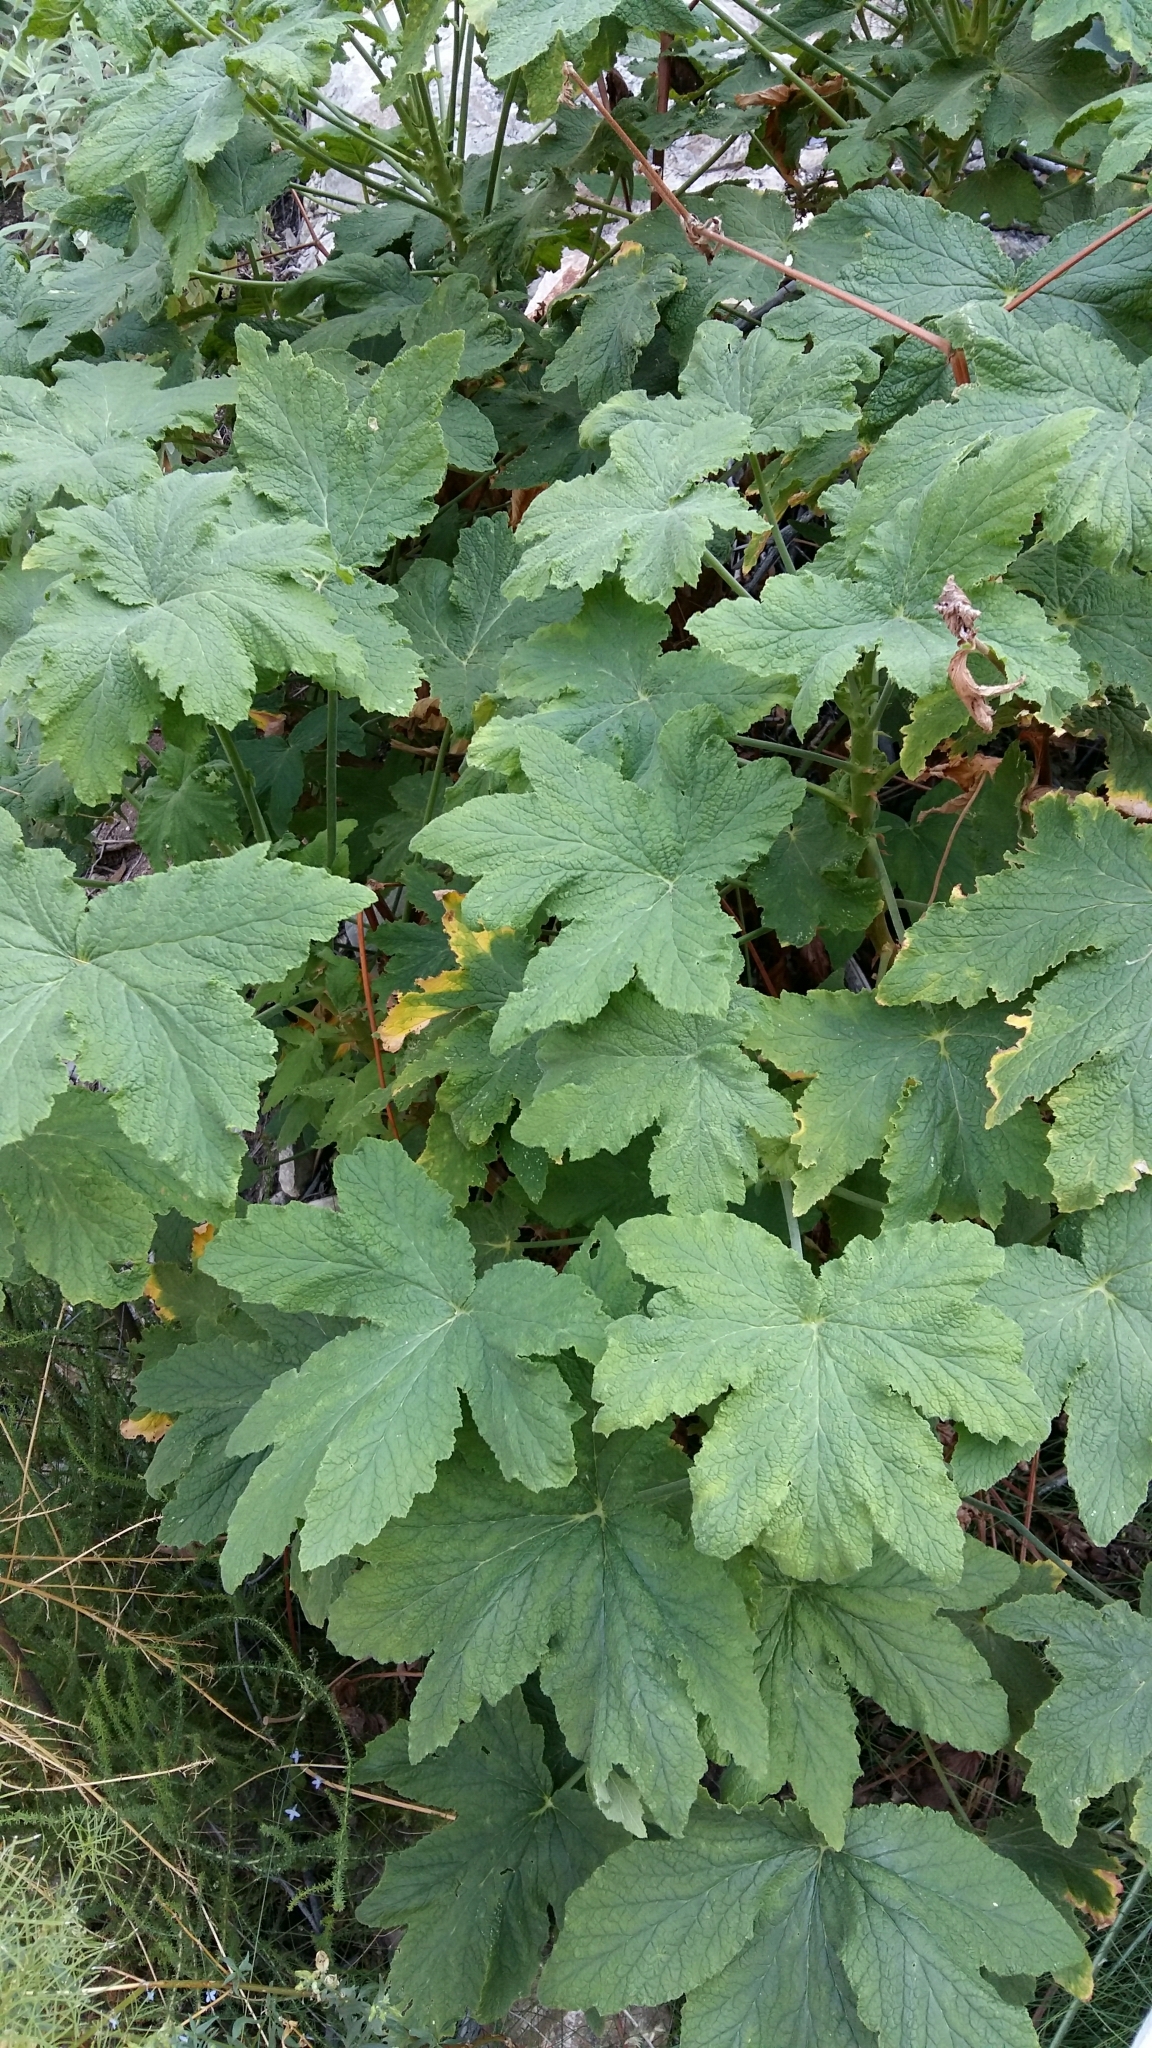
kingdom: Plantae
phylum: Tracheophyta
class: Magnoliopsida
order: Geraniales
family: Geraniaceae
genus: Pelargonium
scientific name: Pelargonium hispidum
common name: Hispid pelargonium
